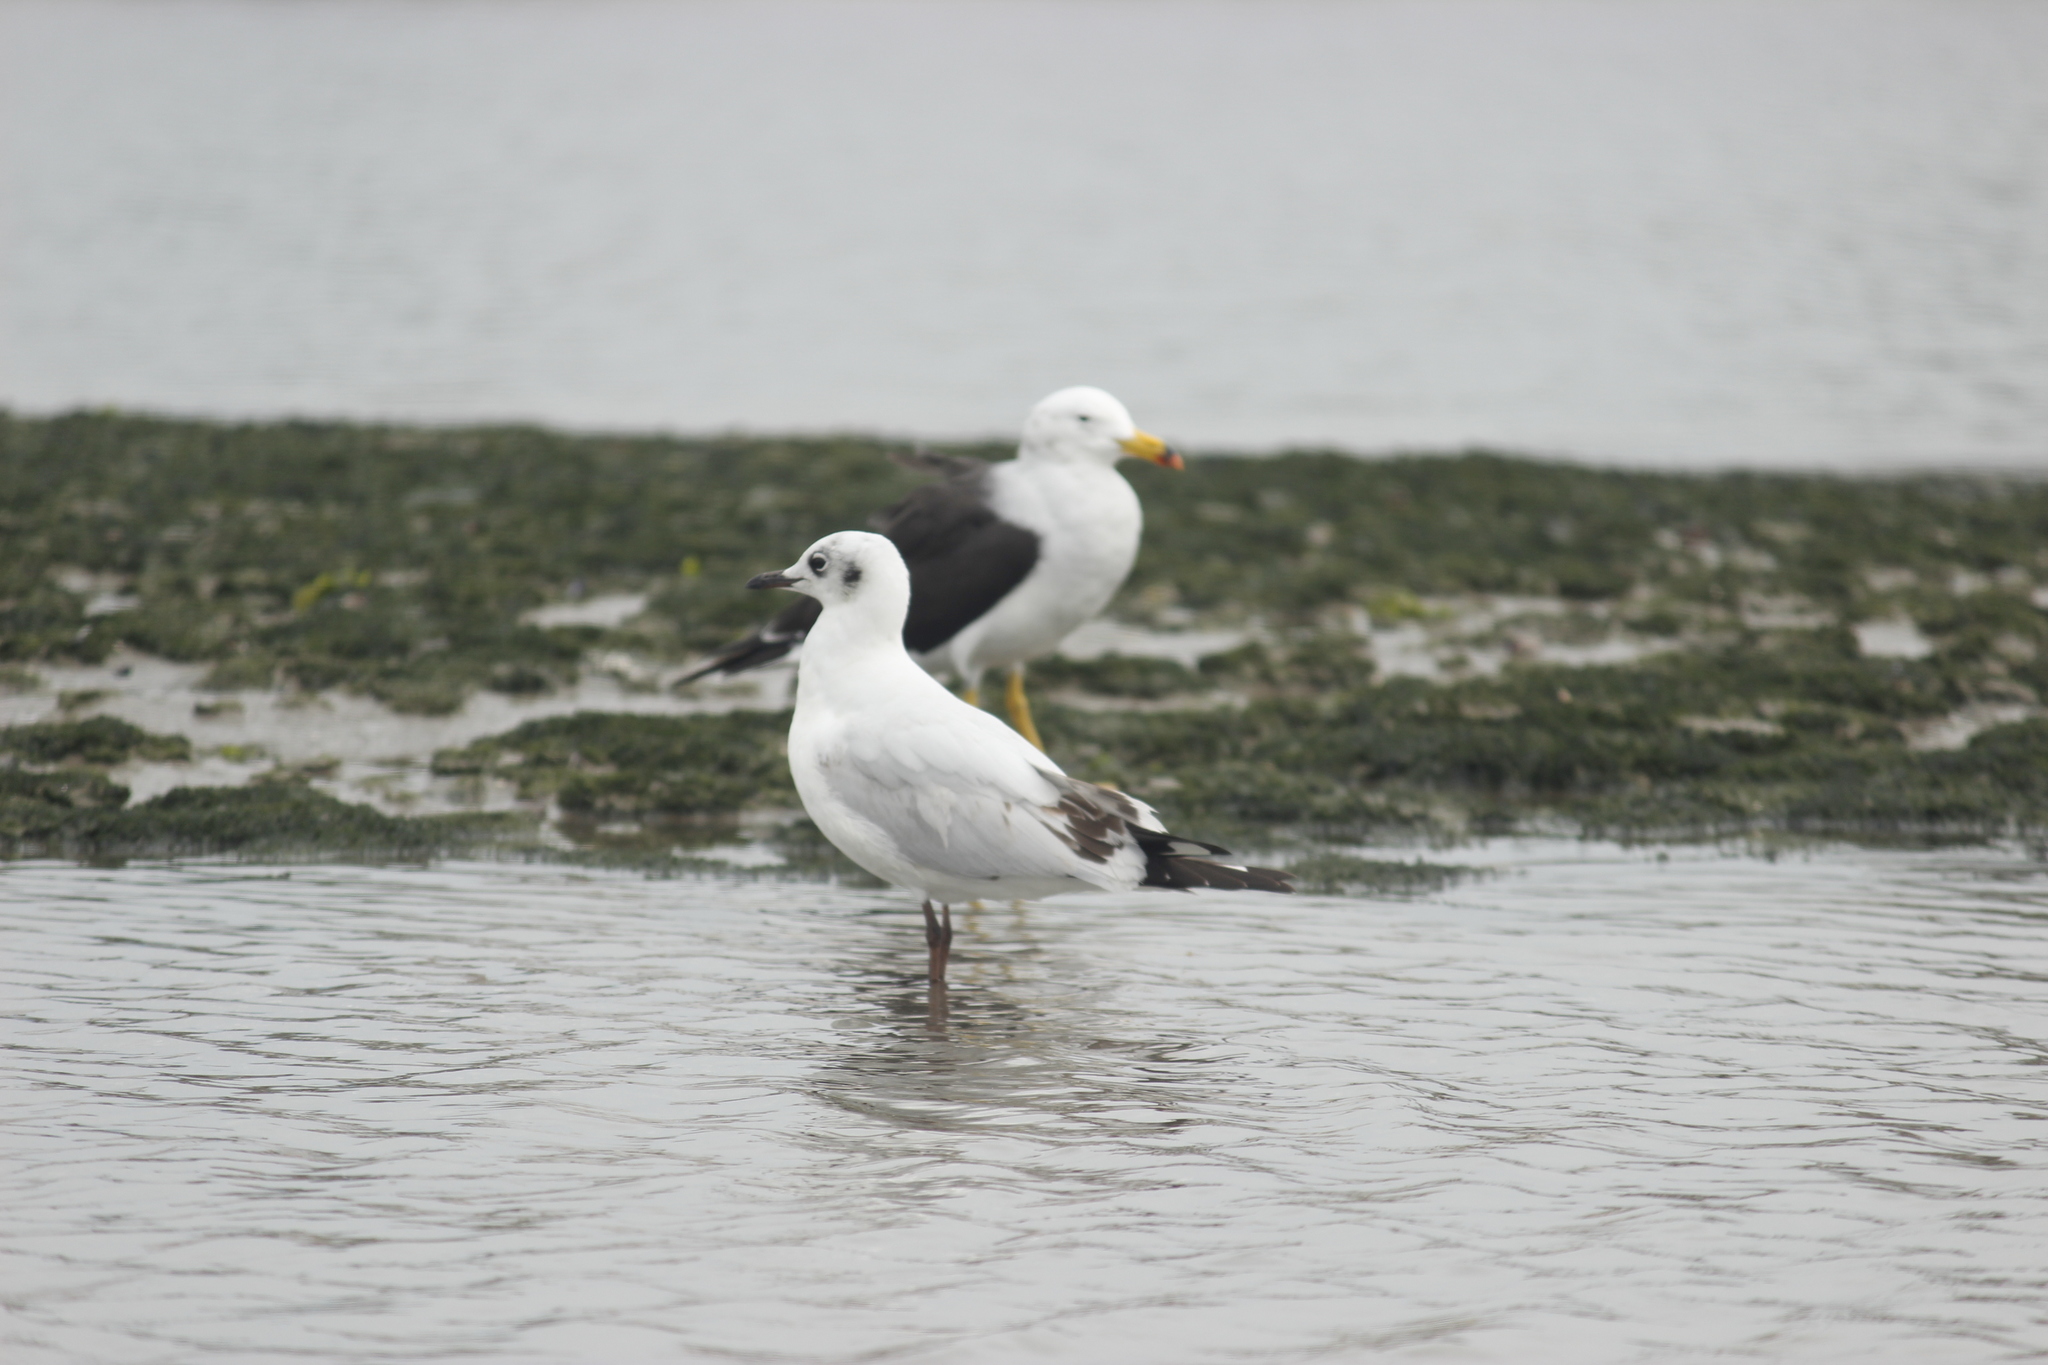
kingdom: Animalia
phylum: Chordata
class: Aves
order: Charadriiformes
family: Laridae
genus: Chroicocephalus
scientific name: Chroicocephalus serranus
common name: Andean gull
